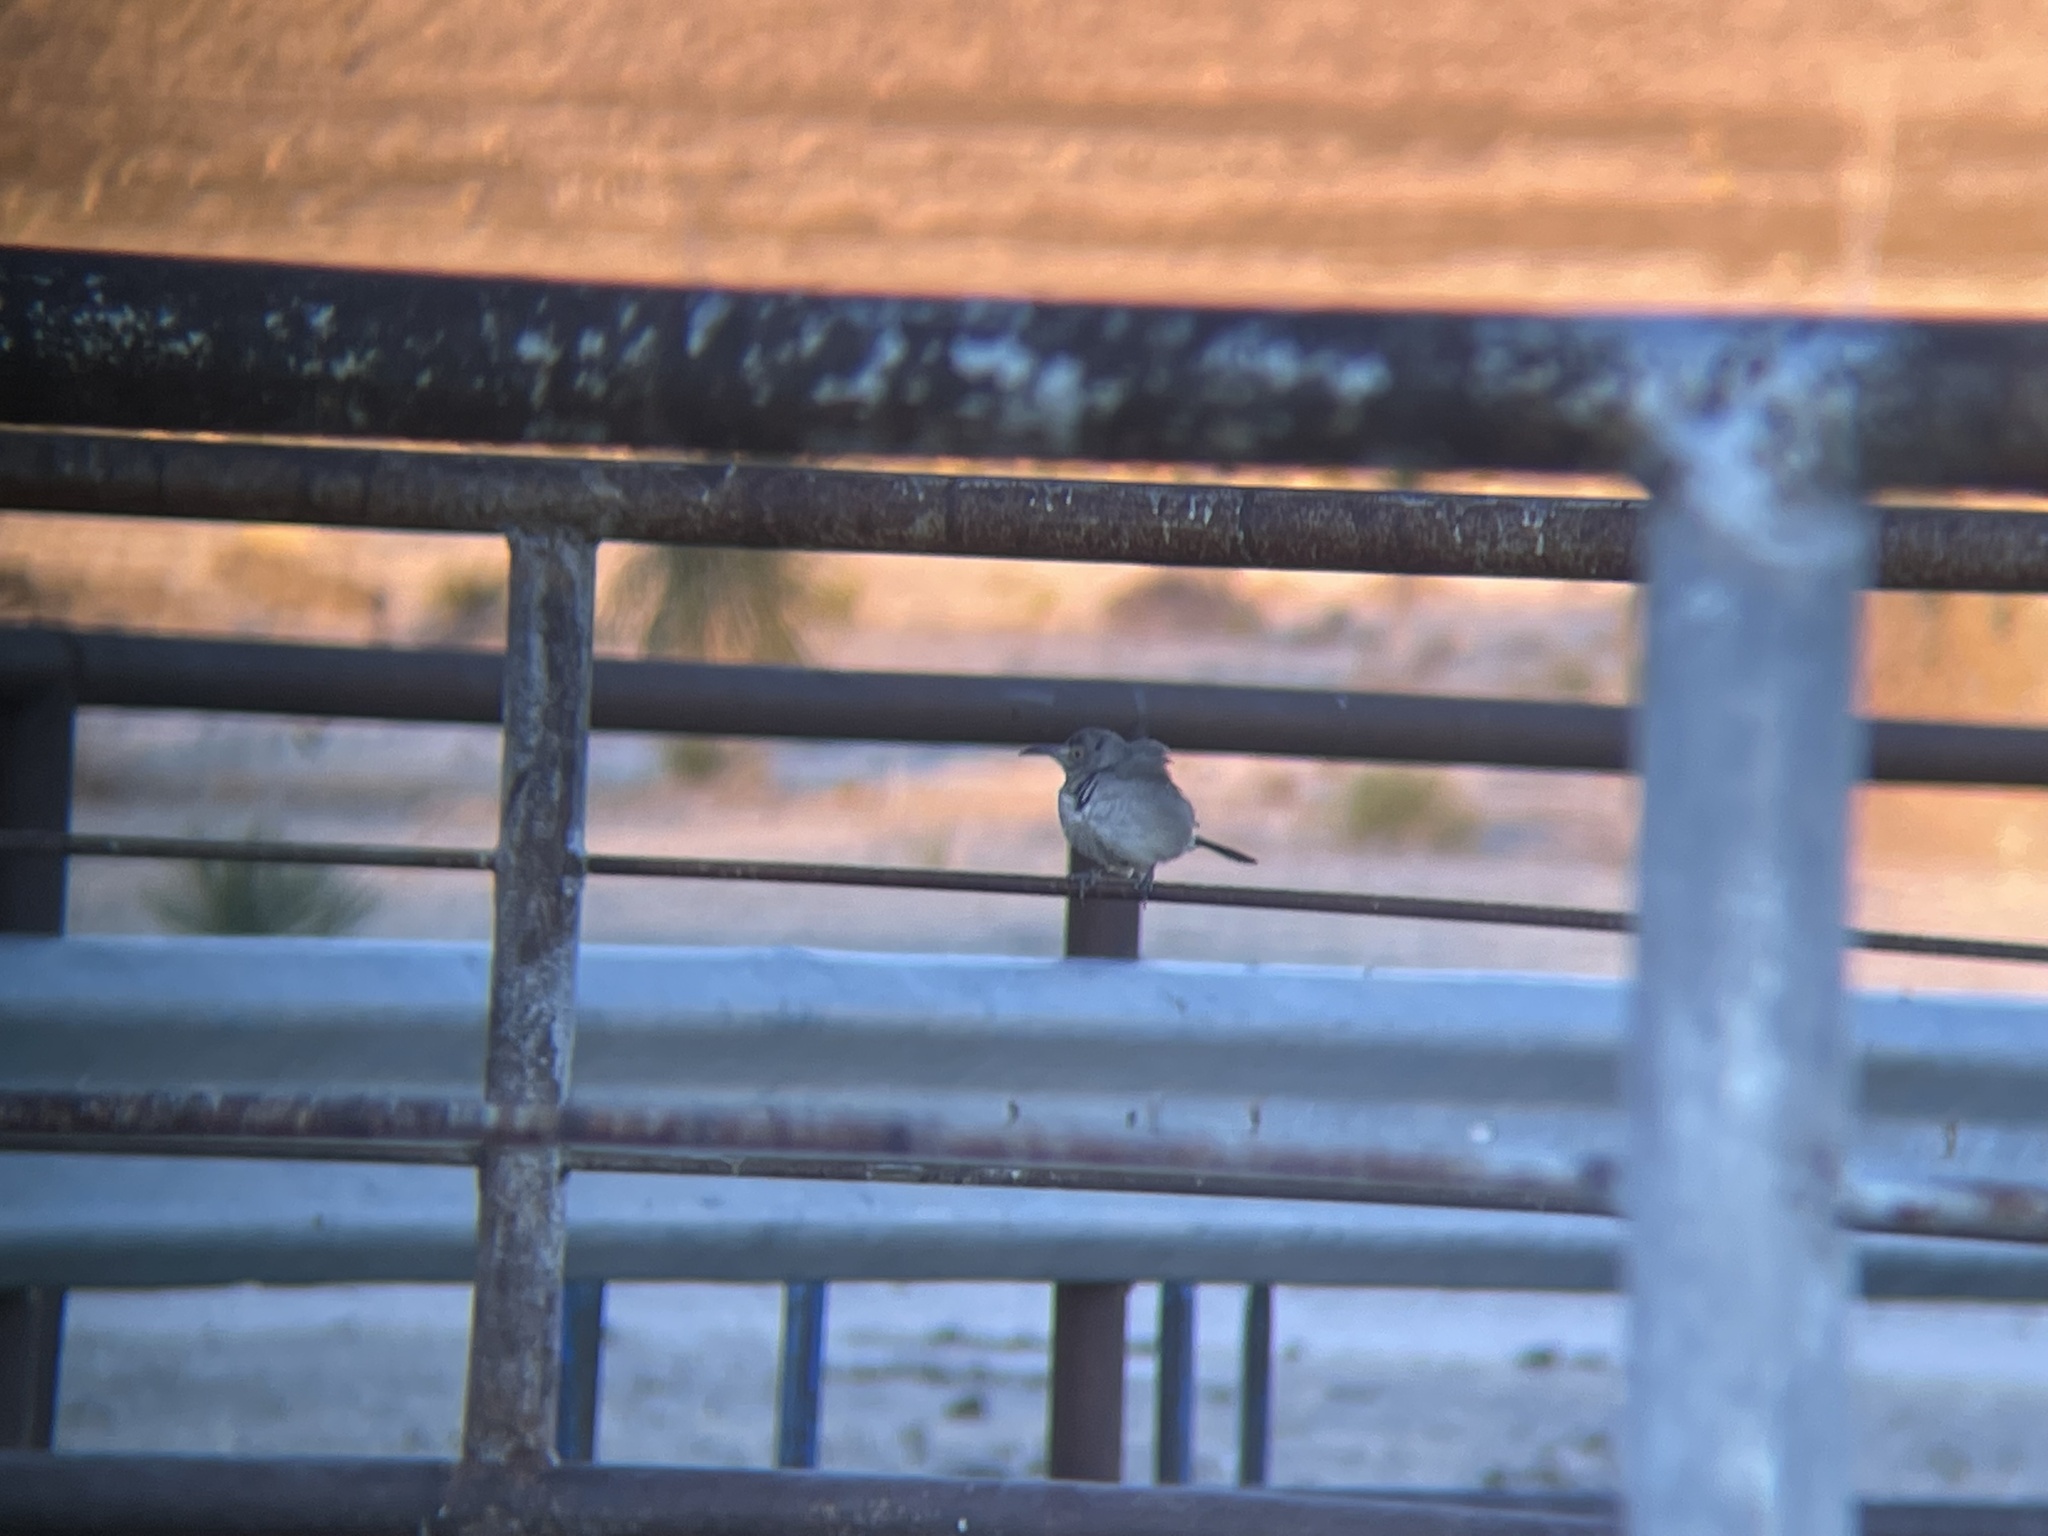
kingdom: Animalia
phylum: Chordata
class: Aves
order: Passeriformes
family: Mimidae
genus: Toxostoma
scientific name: Toxostoma curvirostre
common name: Curve-billed thrasher
